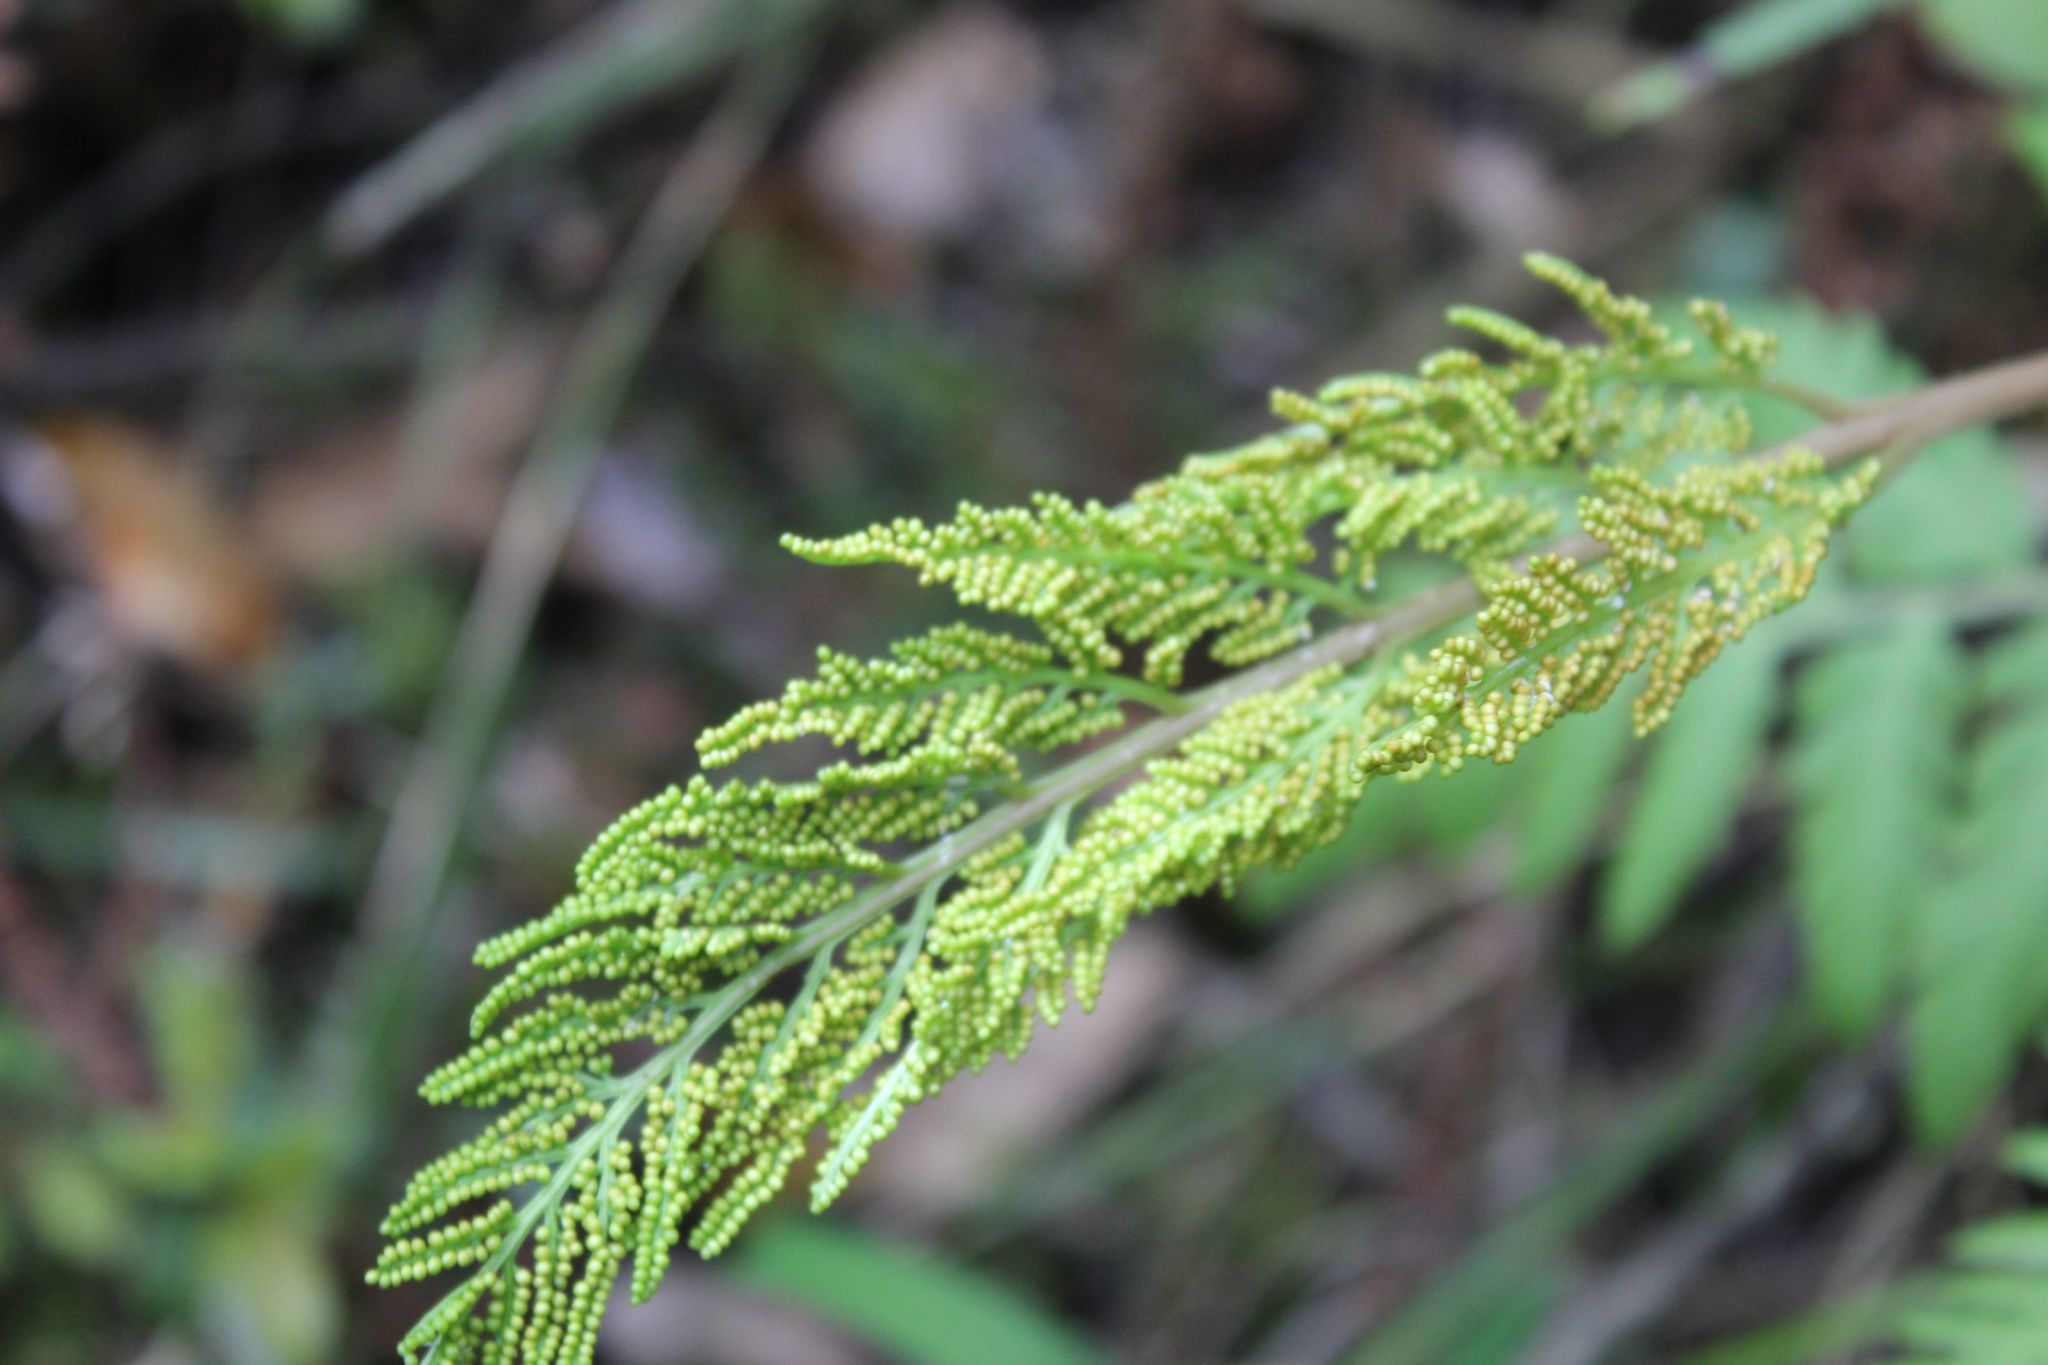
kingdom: Plantae
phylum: Tracheophyta
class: Polypodiopsida
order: Ophioglossales
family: Ophioglossaceae
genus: Botrypus
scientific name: Botrypus virginianus
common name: Common grapefern
